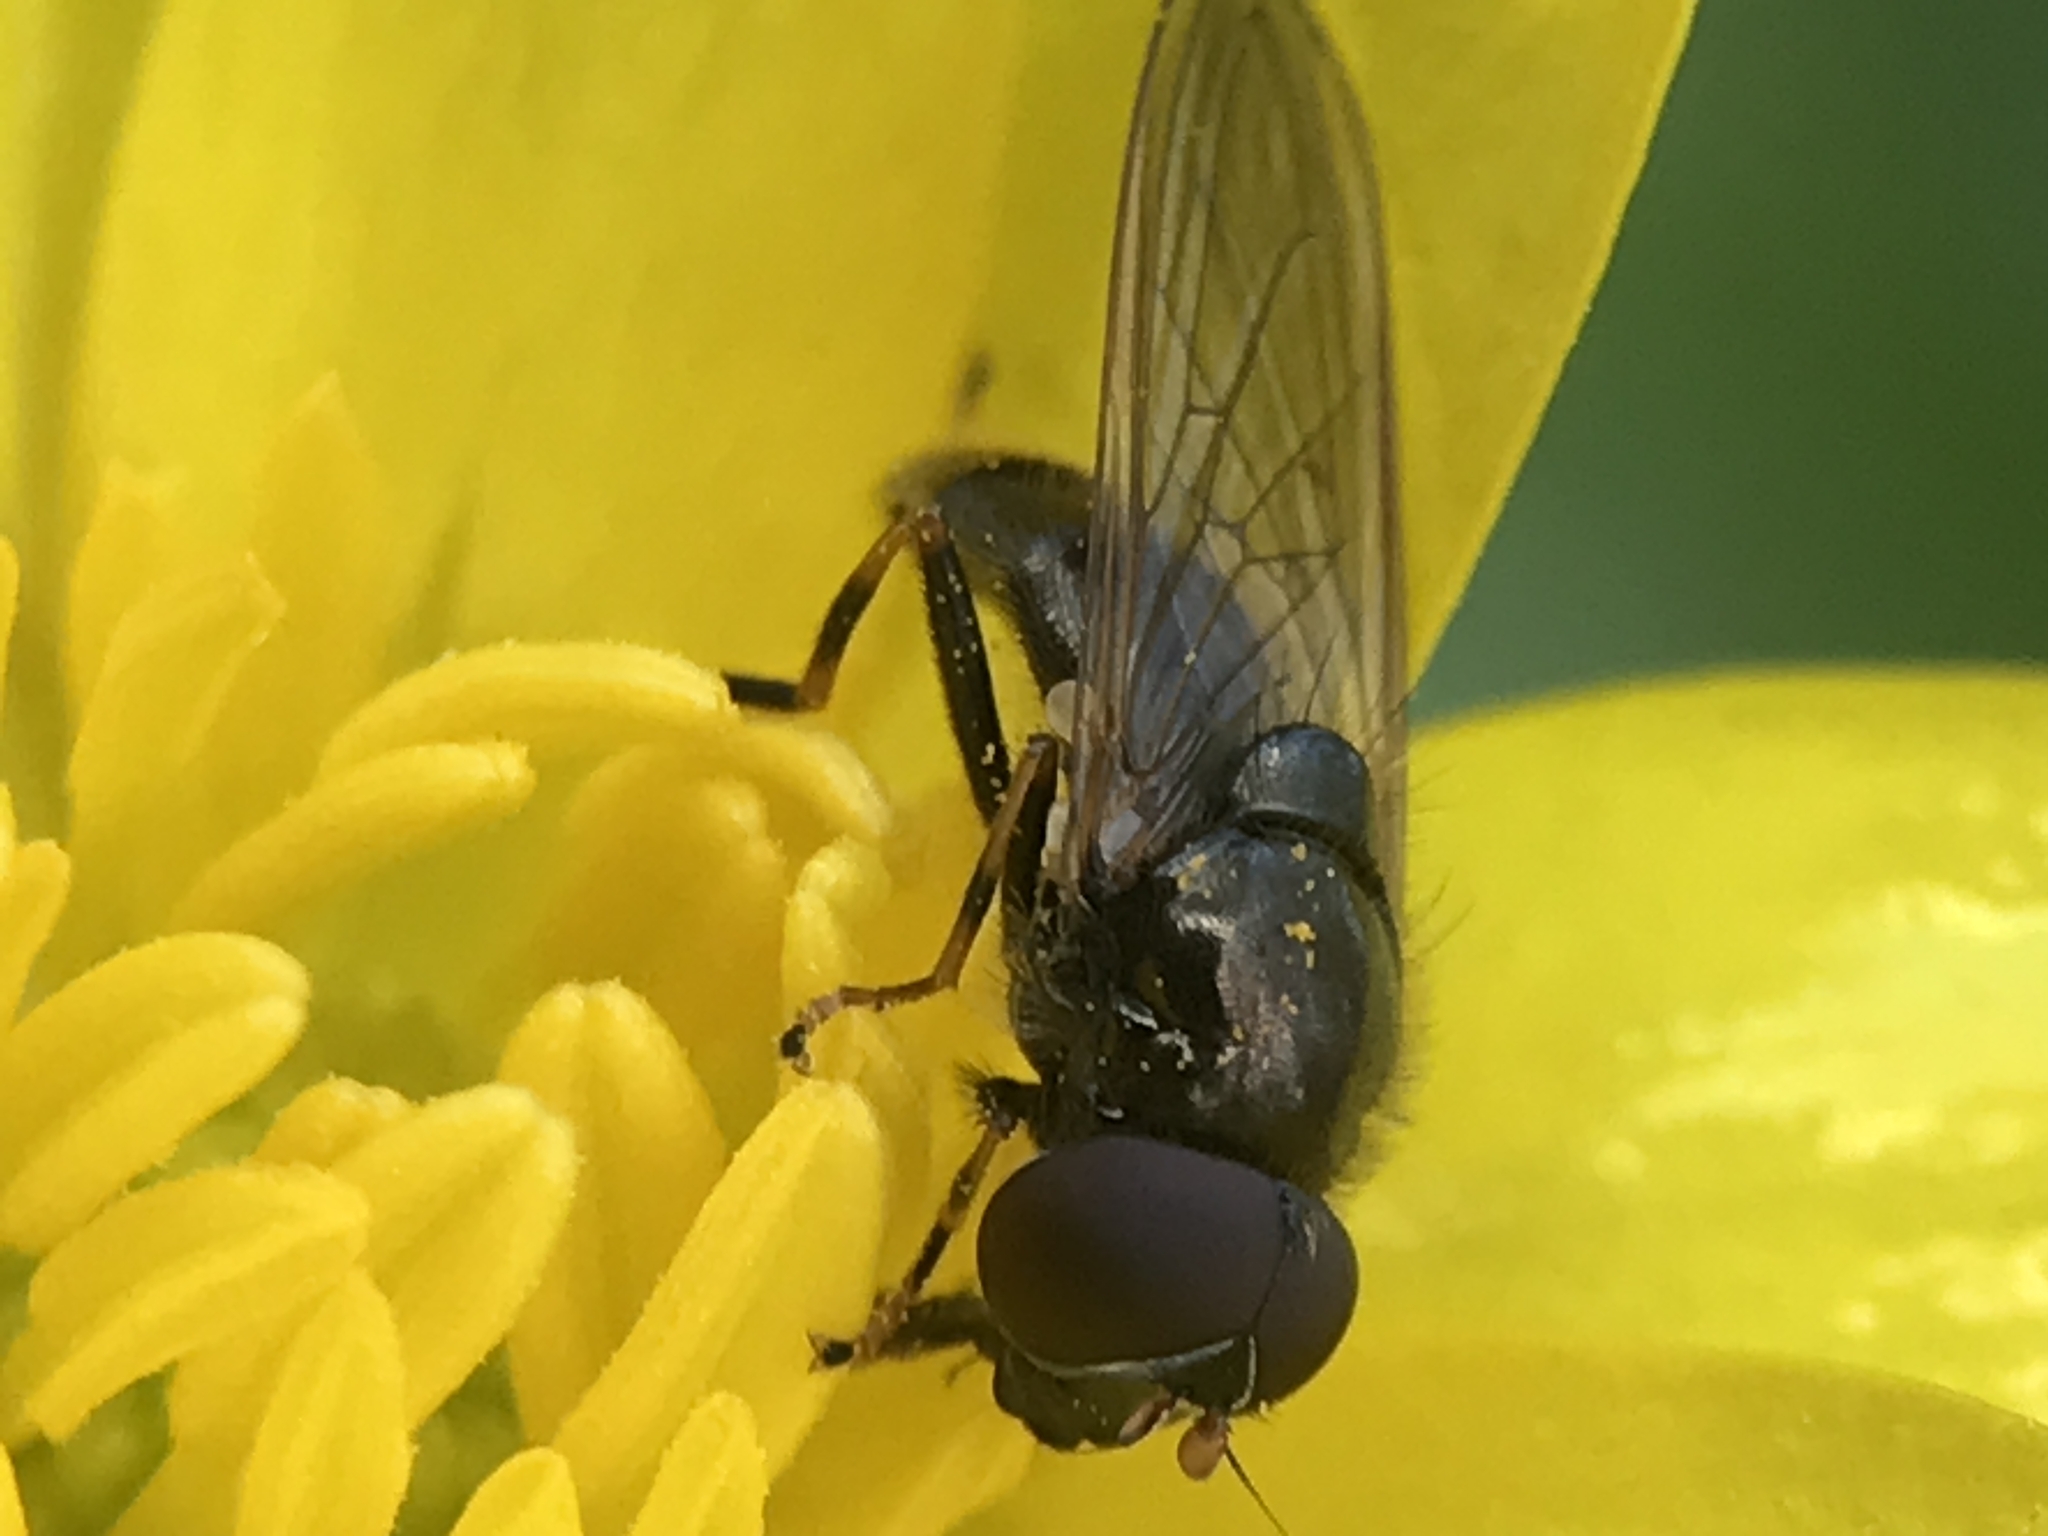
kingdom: Animalia
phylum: Arthropoda
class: Insecta
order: Diptera
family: Syrphidae
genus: Cheilosia
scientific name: Cheilosia pagana
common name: Hover fly
